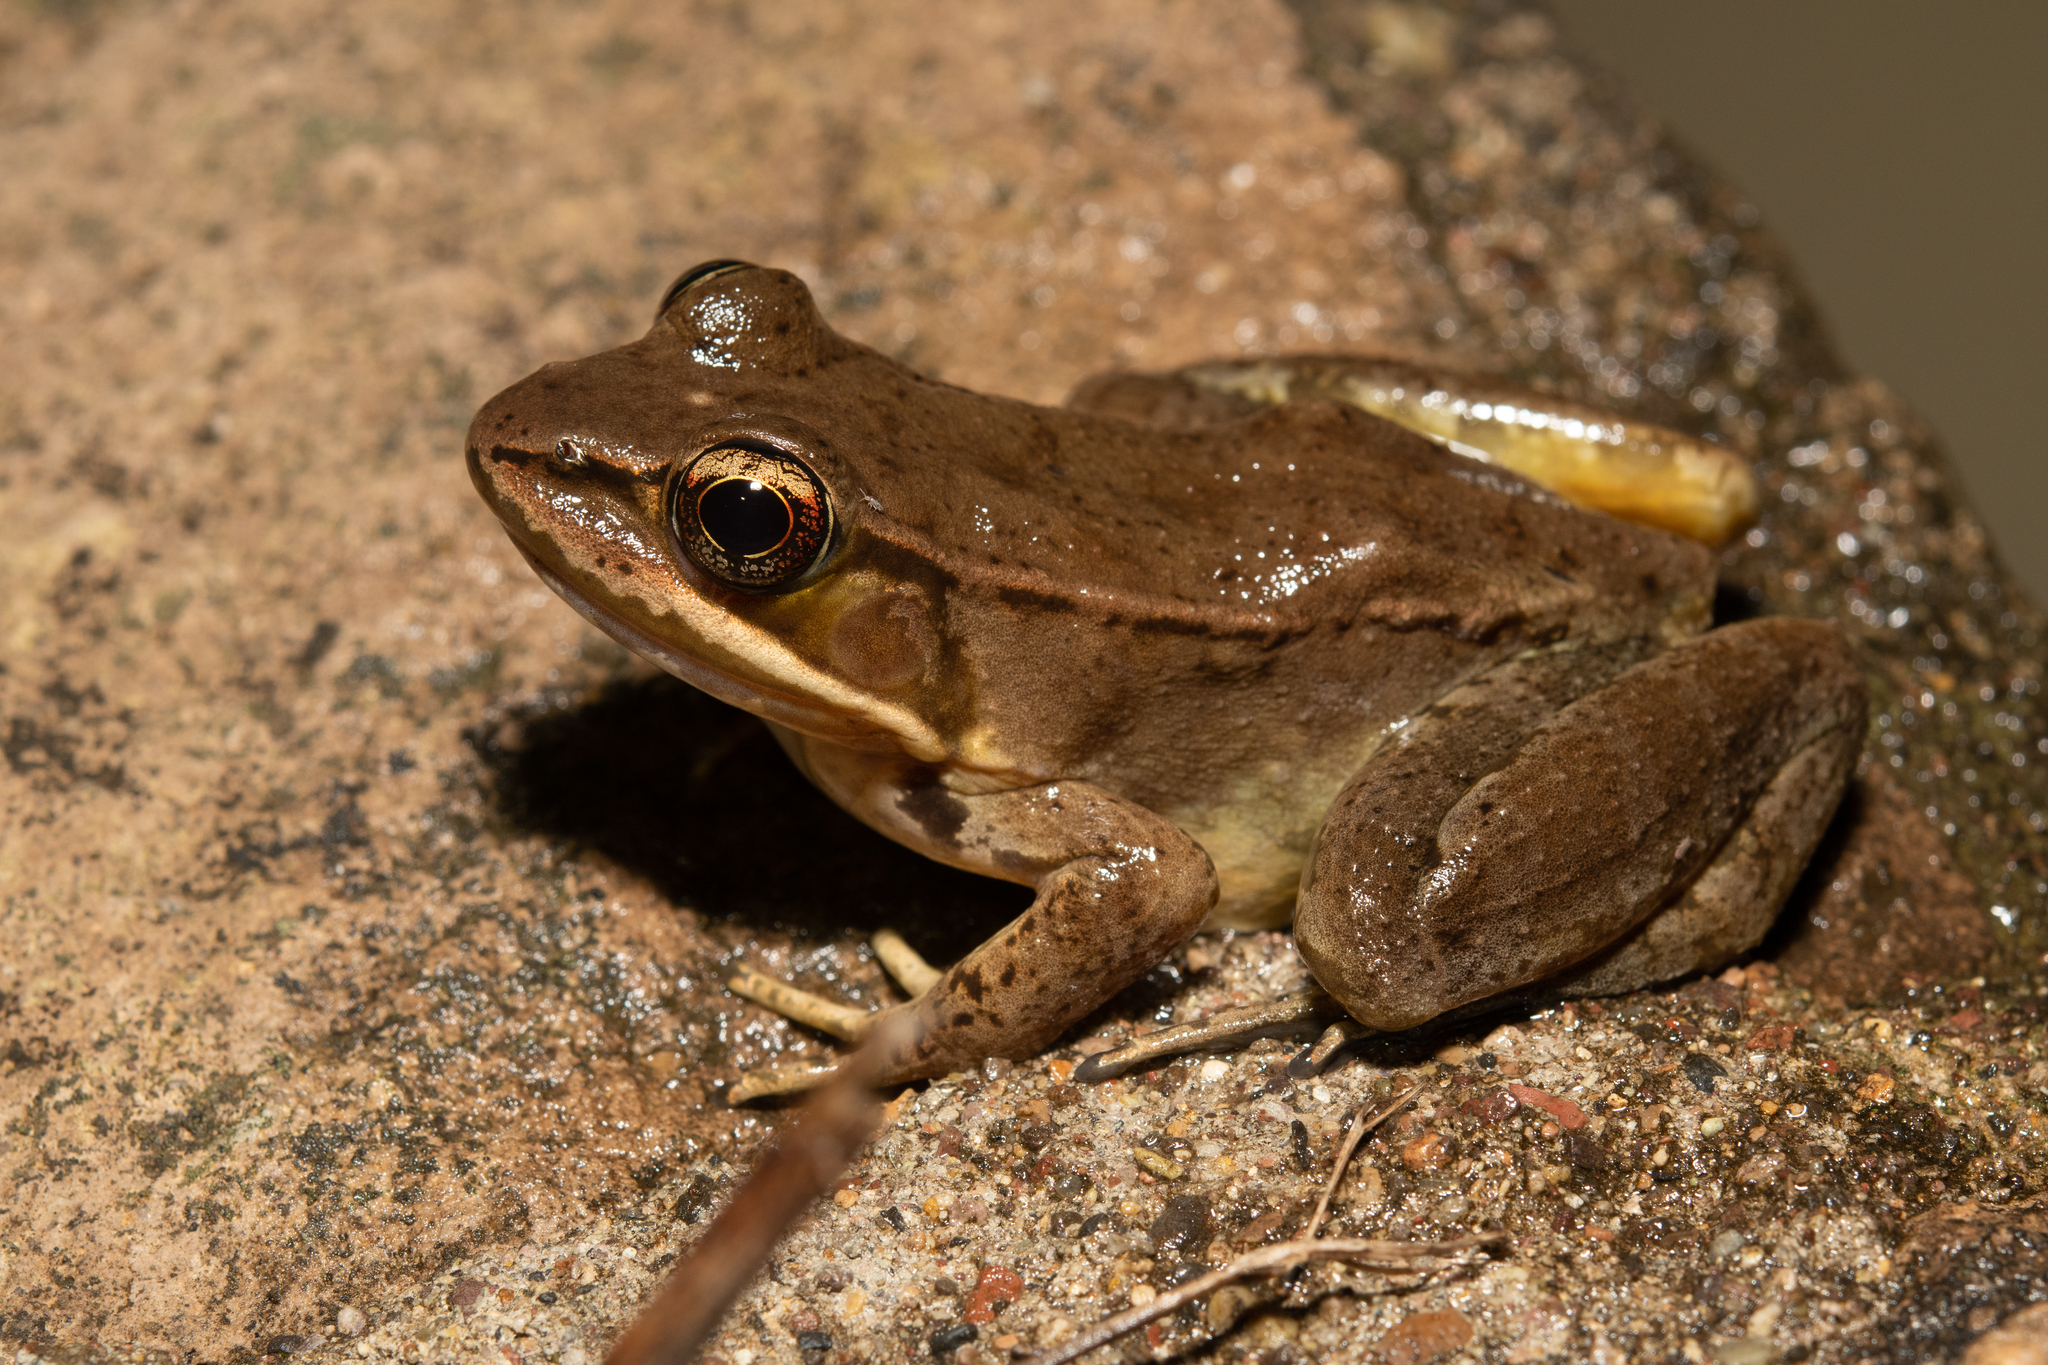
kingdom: Animalia
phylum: Chordata
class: Amphibia
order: Anura
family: Ranidae
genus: Lithobates
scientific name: Lithobates maculatus
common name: Highland frog
